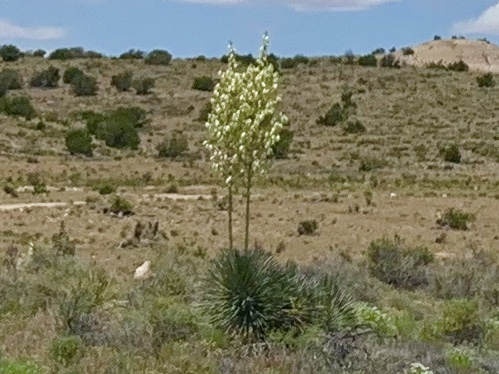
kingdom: Plantae
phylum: Tracheophyta
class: Liliopsida
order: Asparagales
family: Asparagaceae
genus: Yucca
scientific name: Yucca elata
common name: Palmella
